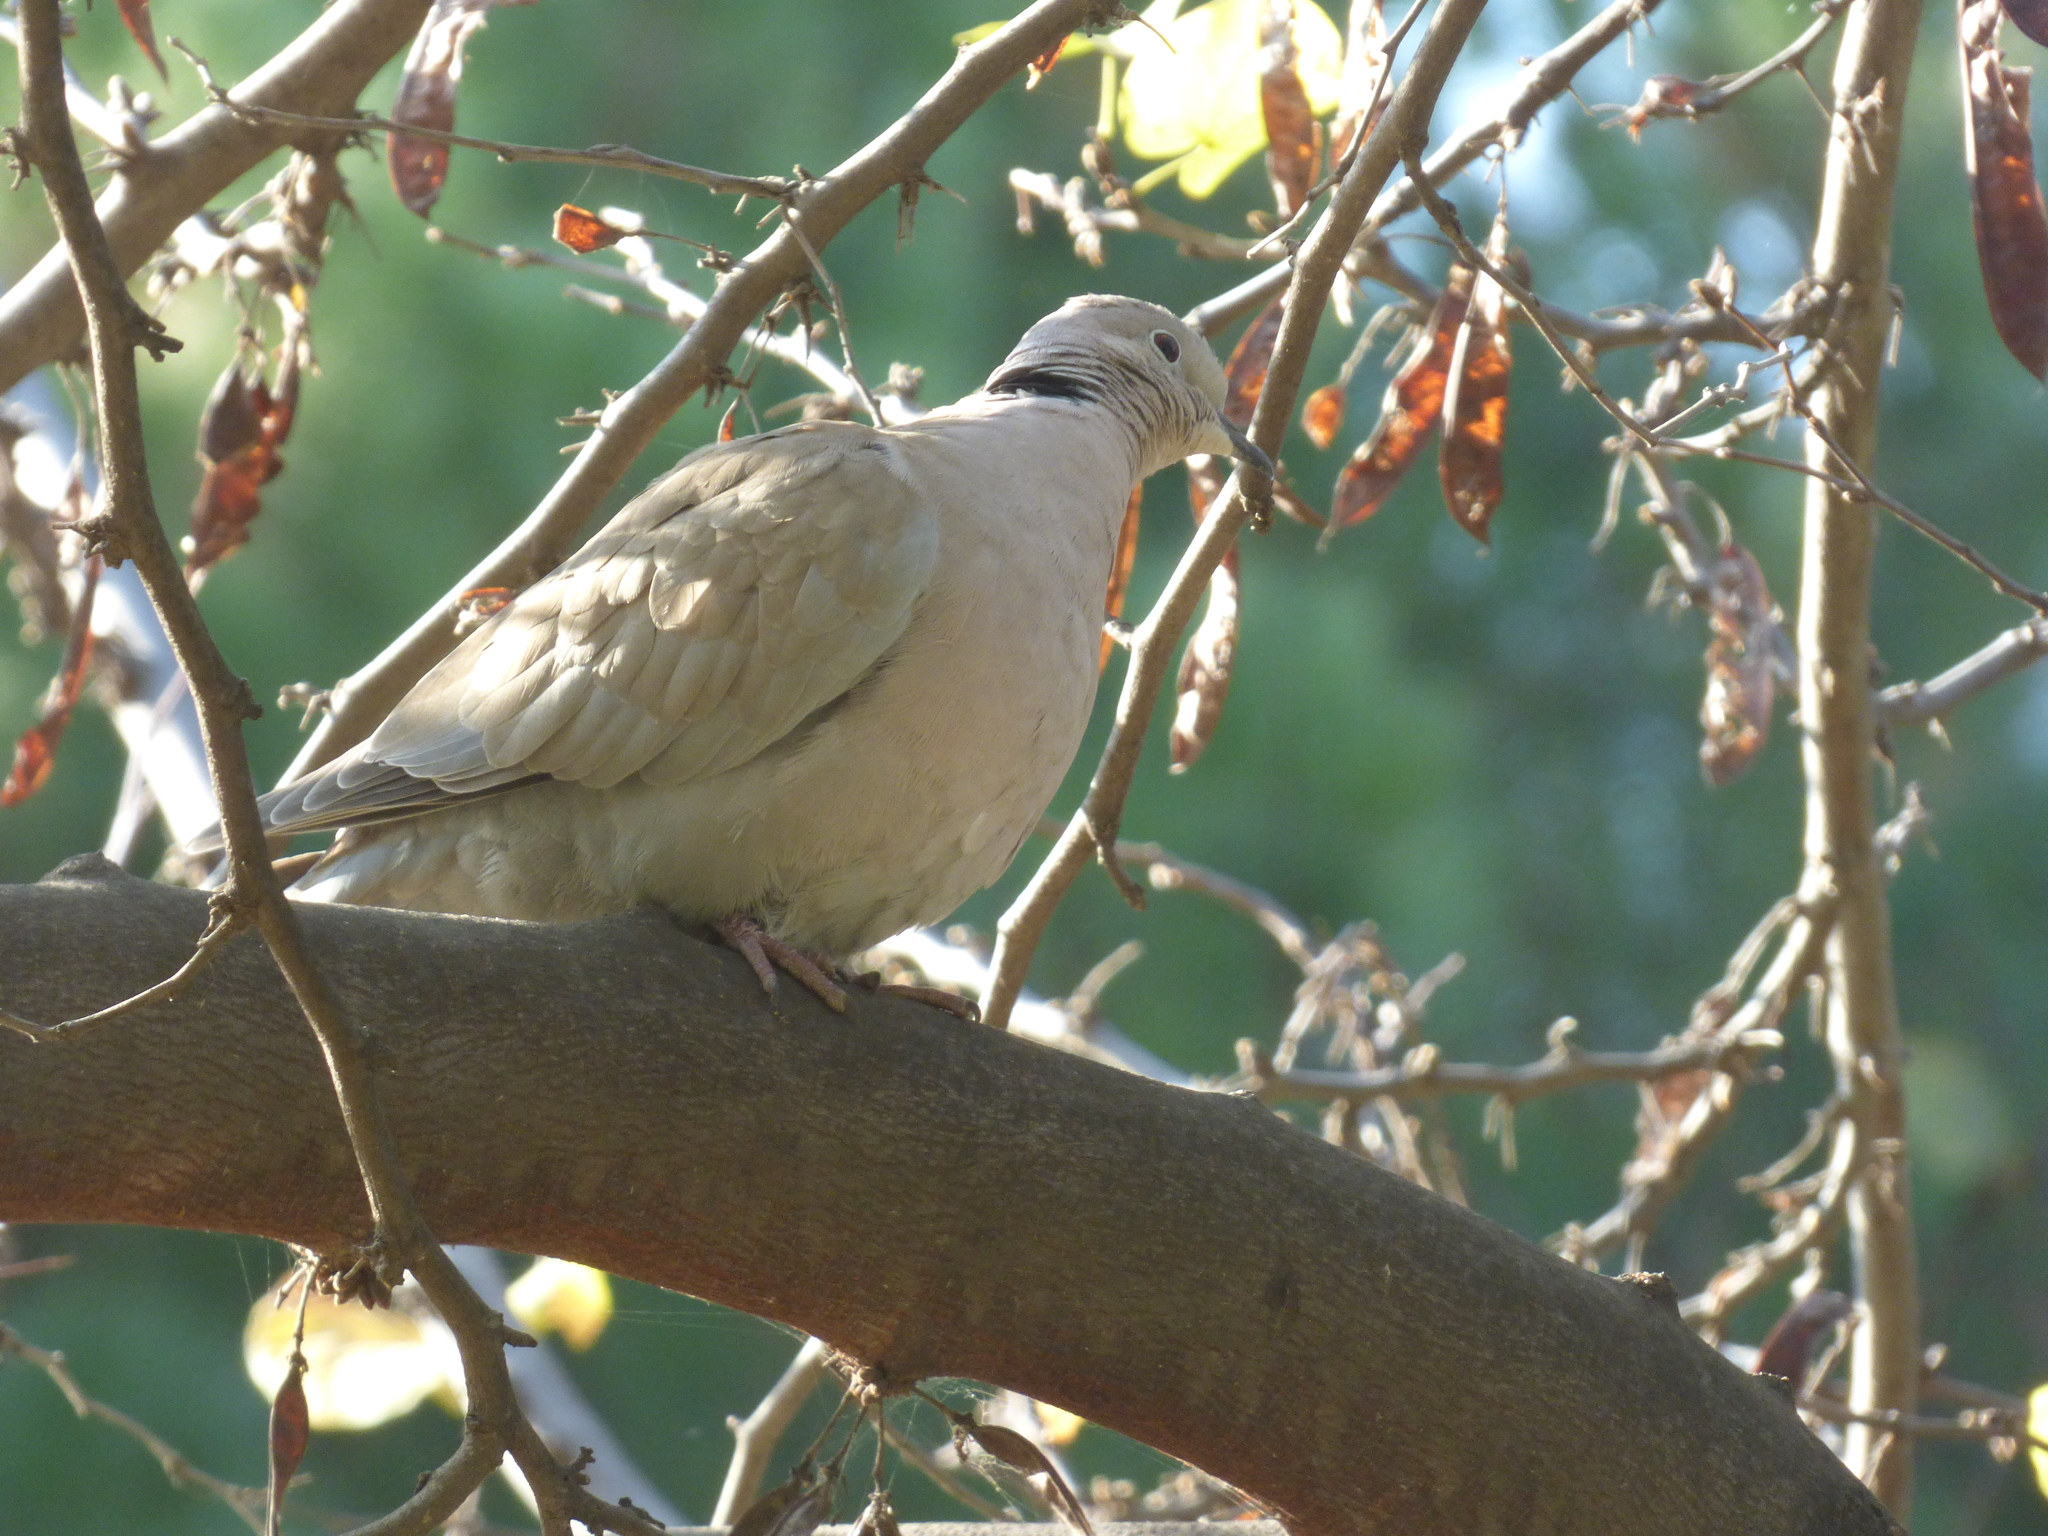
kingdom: Animalia
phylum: Chordata
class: Aves
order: Columbiformes
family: Columbidae
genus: Streptopelia
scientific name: Streptopelia decaocto
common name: Eurasian collared dove
